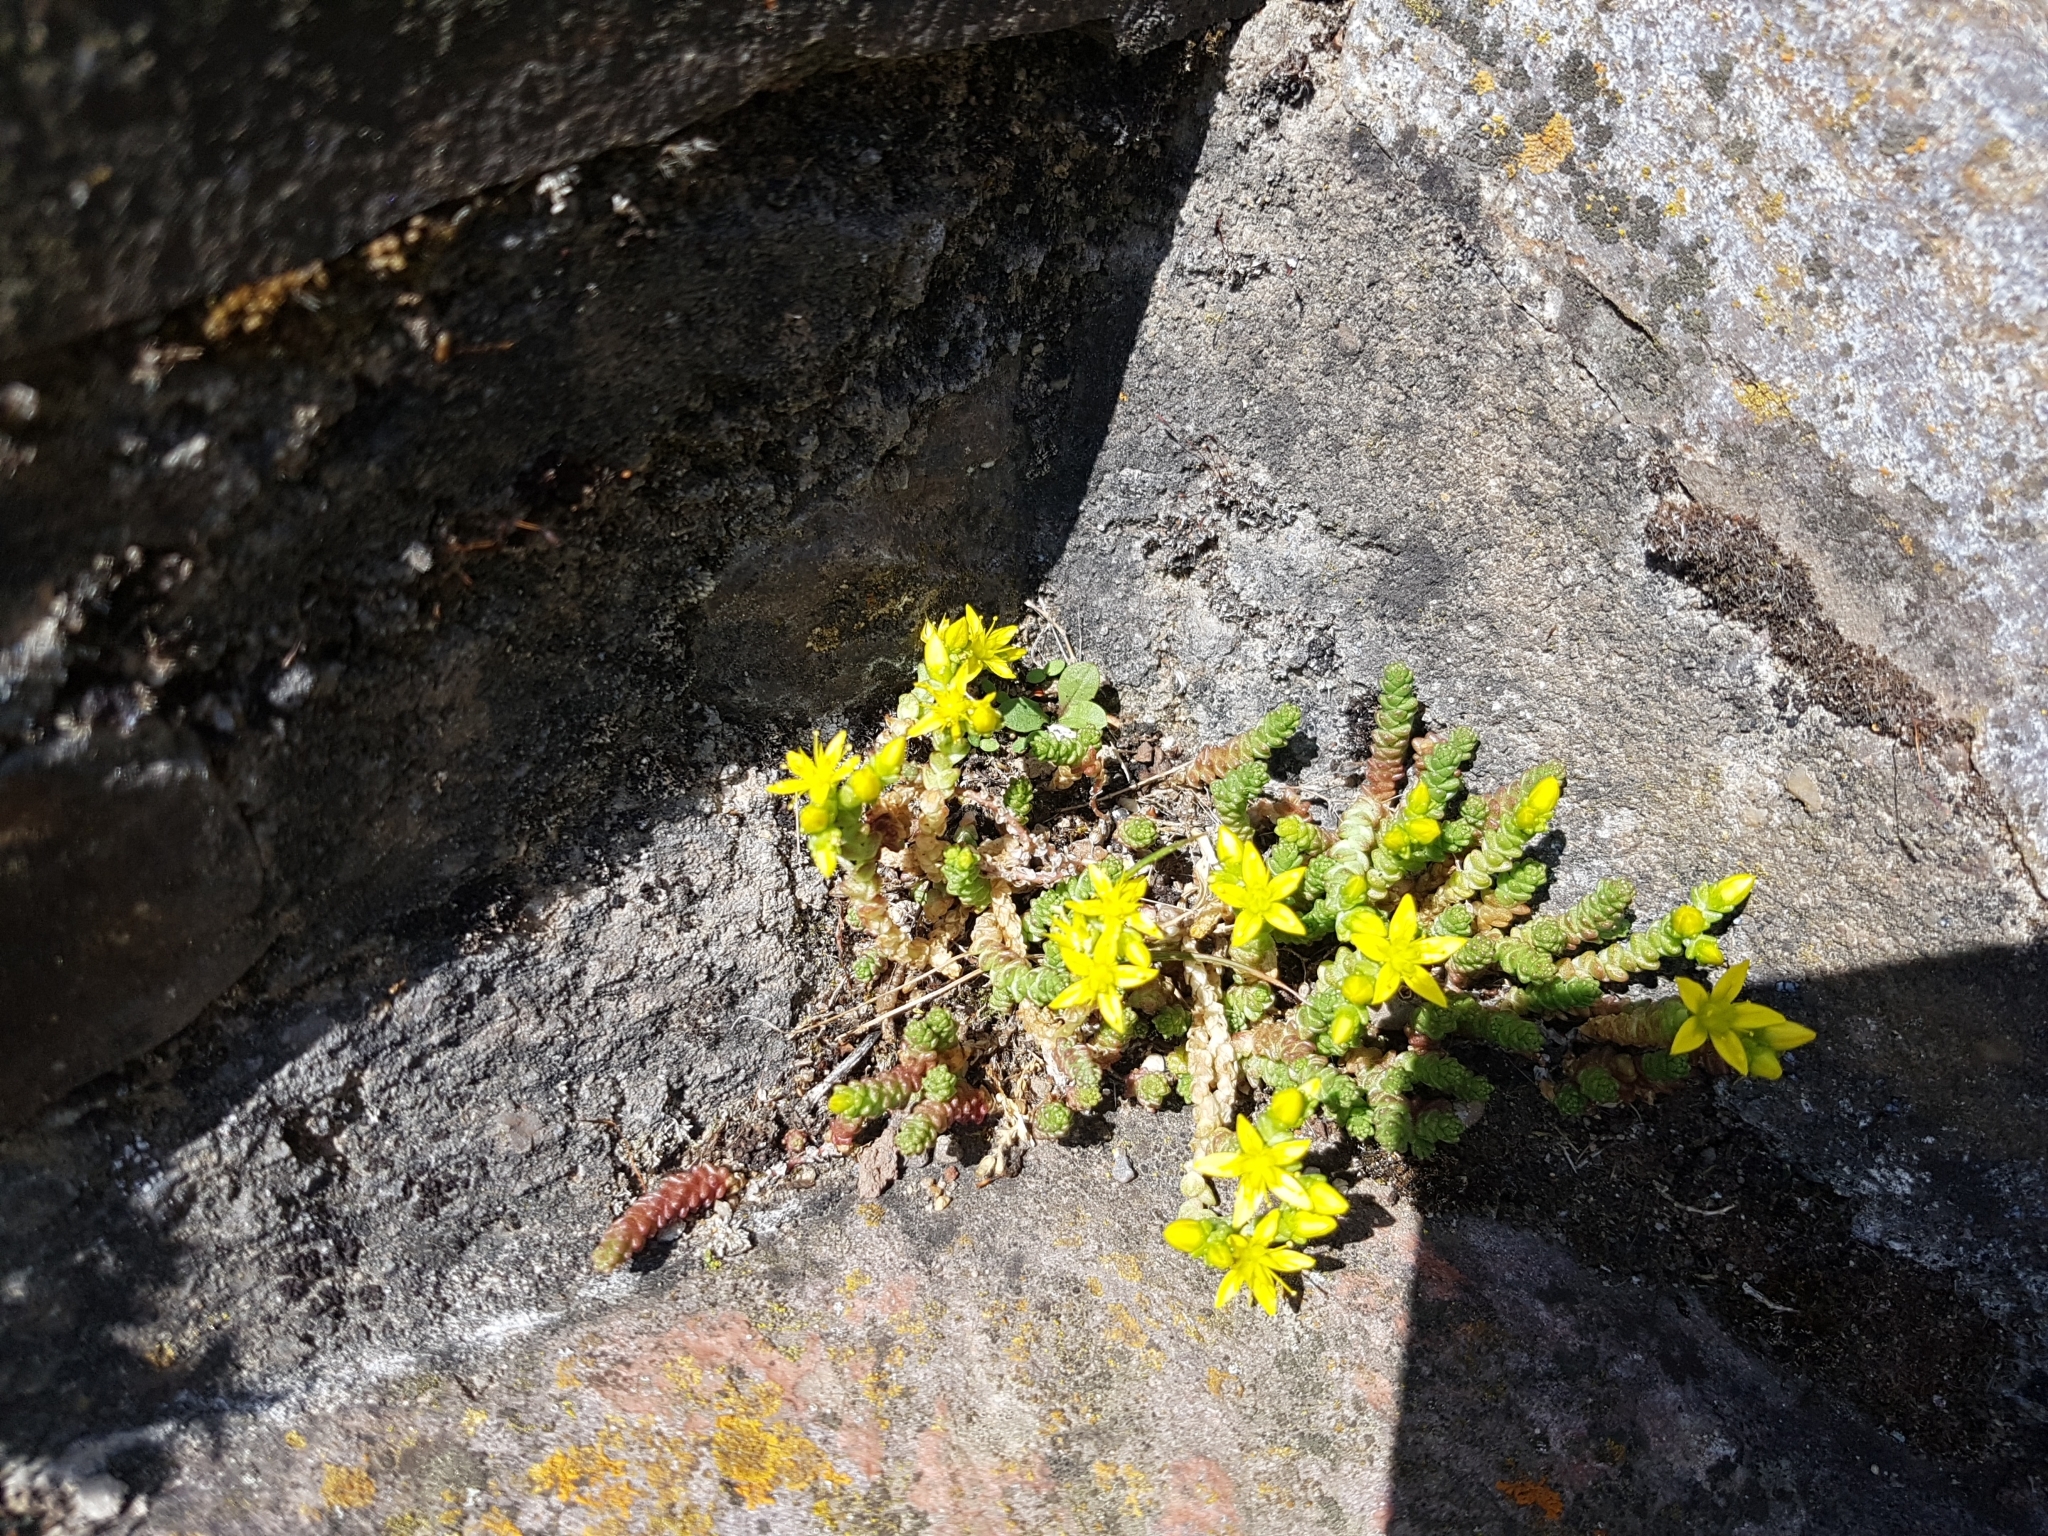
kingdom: Plantae
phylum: Tracheophyta
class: Magnoliopsida
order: Saxifragales
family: Crassulaceae
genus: Sedum
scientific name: Sedum acre
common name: Biting stonecrop
